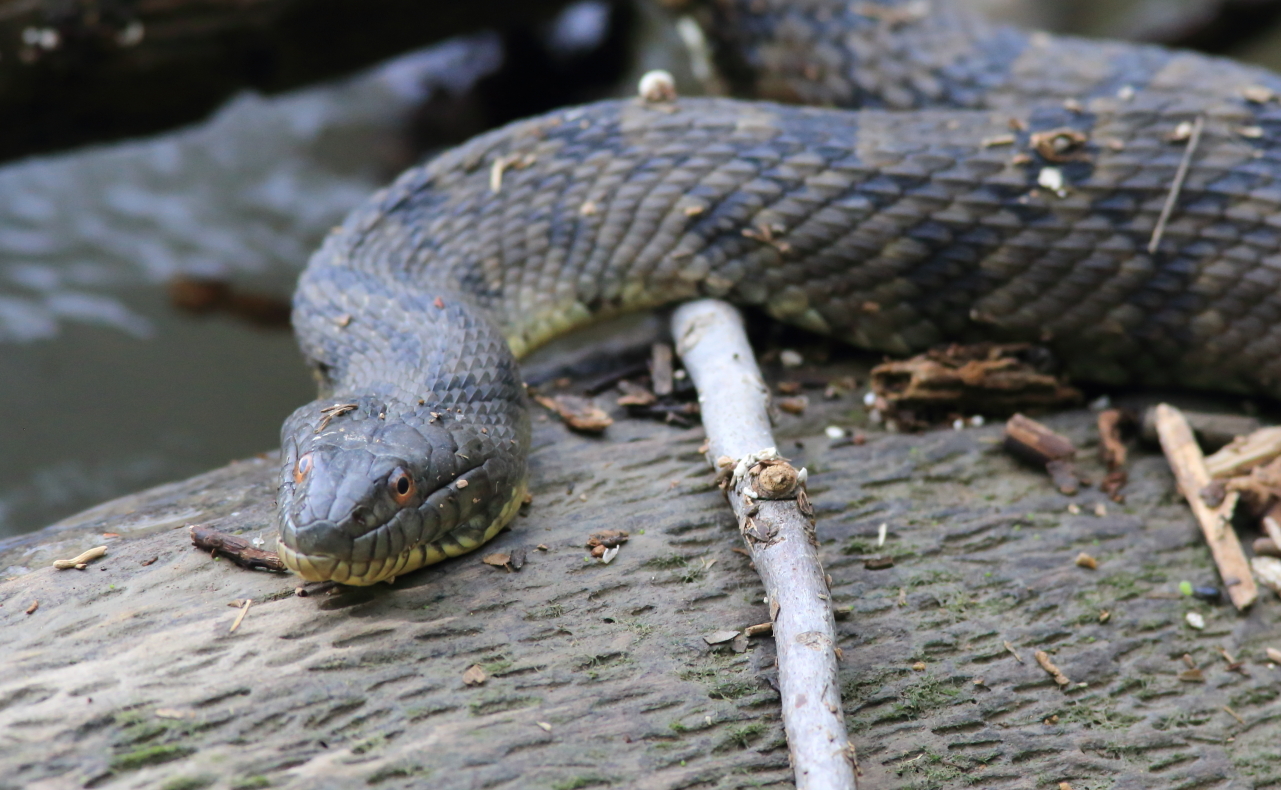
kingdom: Animalia
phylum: Chordata
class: Squamata
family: Colubridae
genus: Nerodia
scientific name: Nerodia rhombifer
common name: Diamondback water snake
